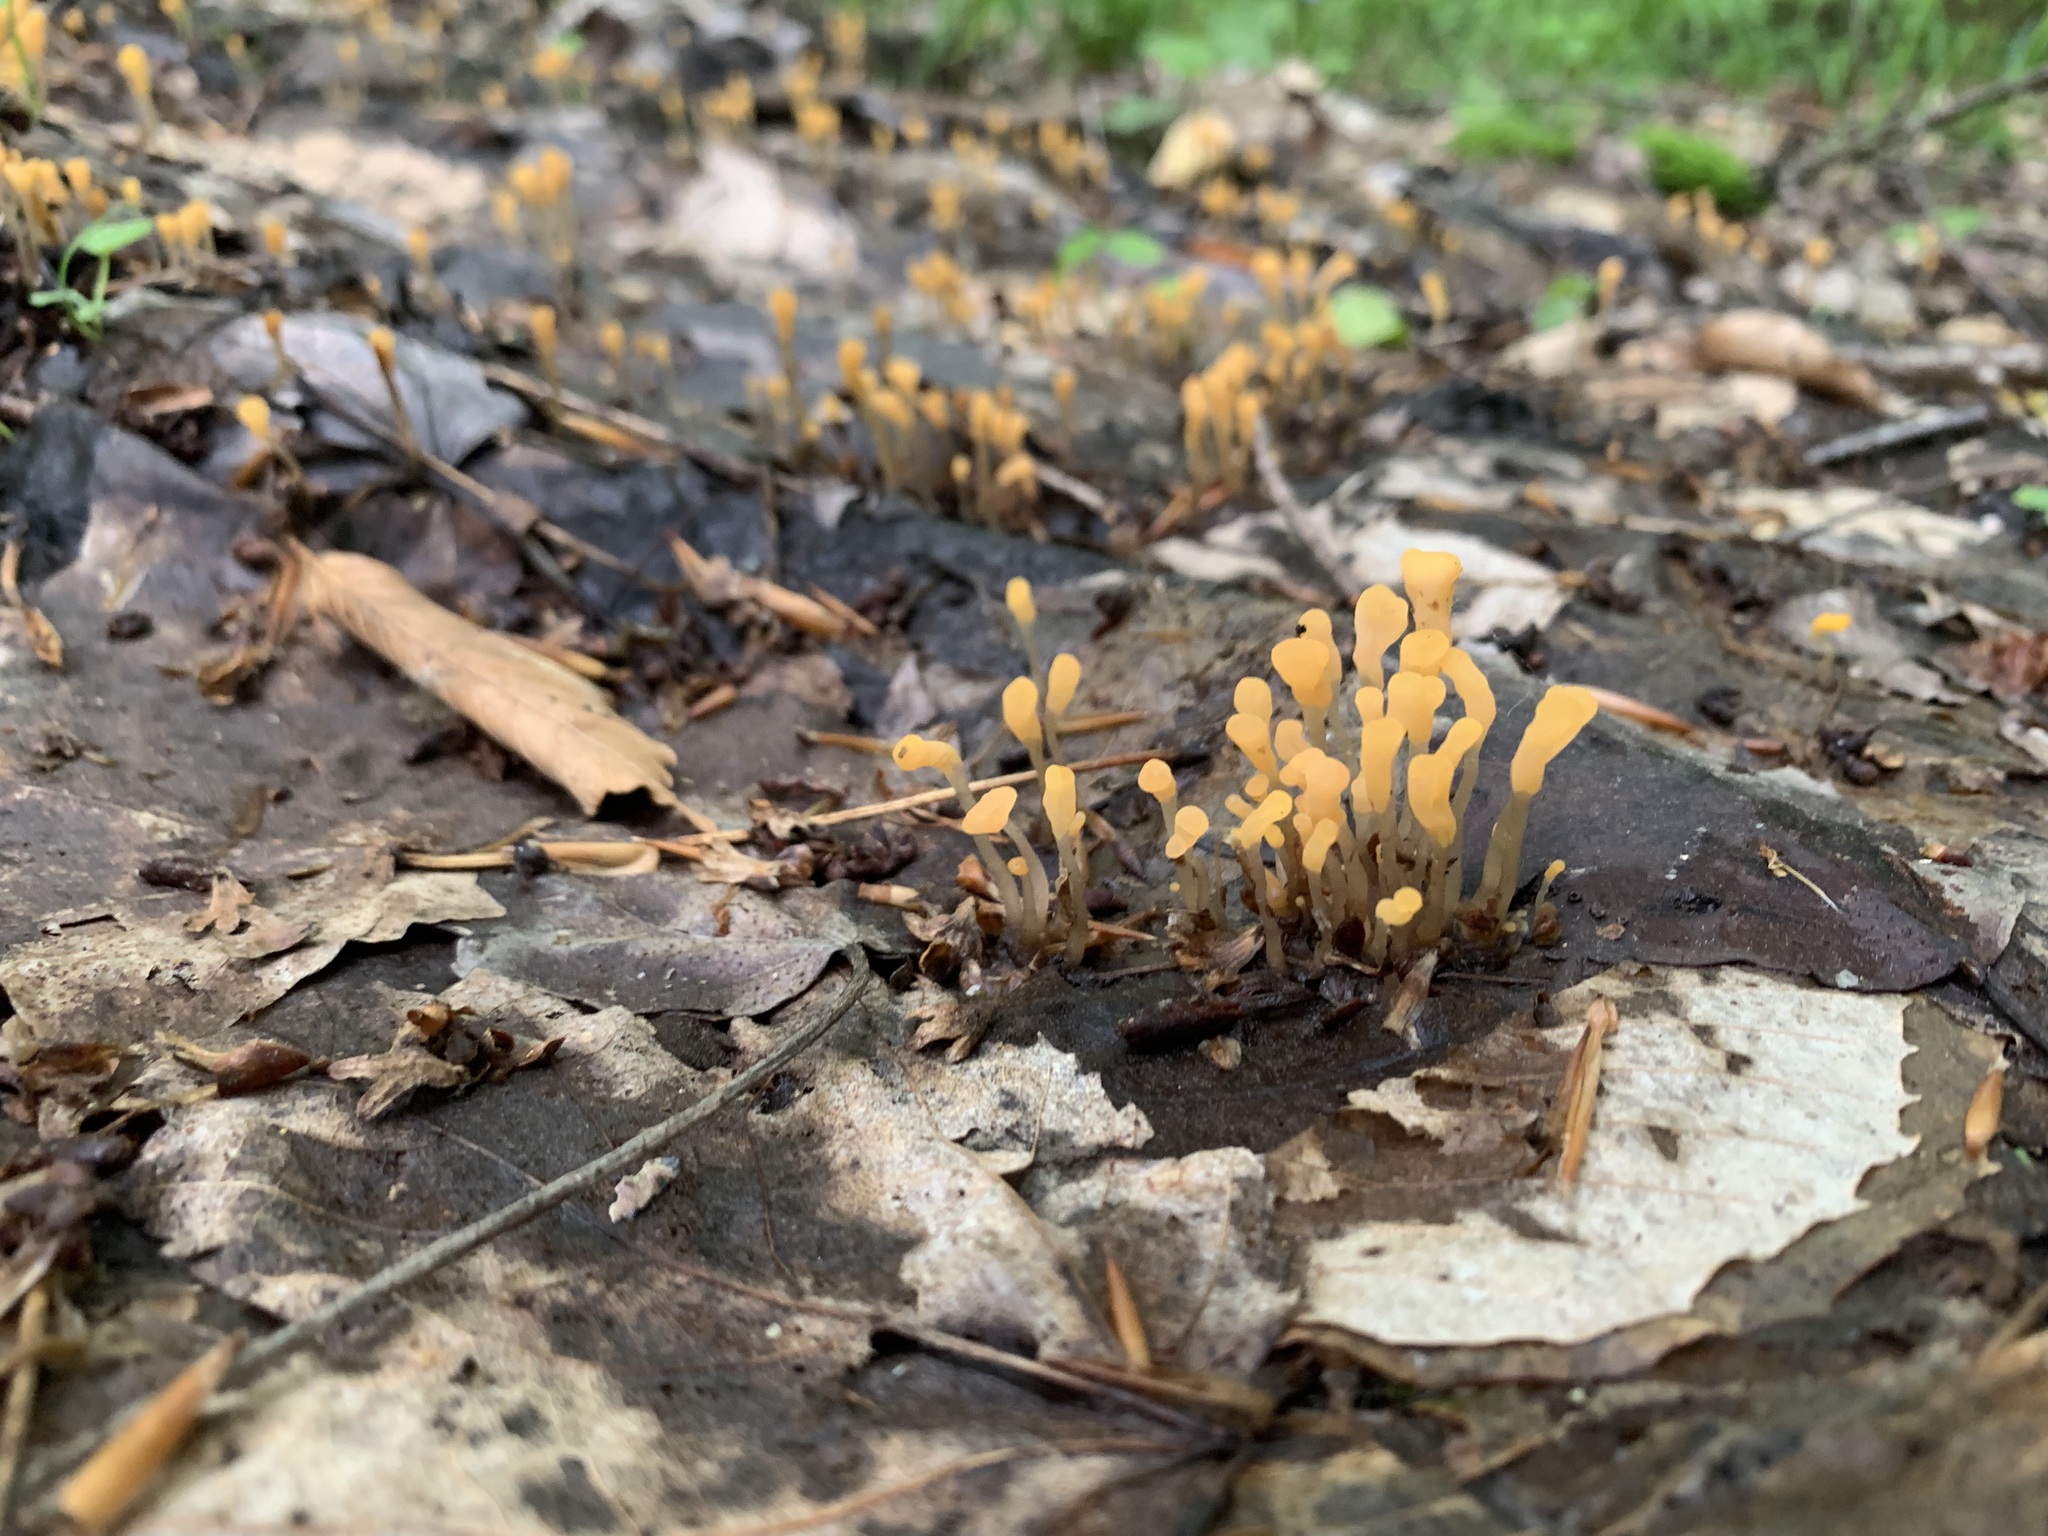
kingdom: Fungi
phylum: Ascomycota
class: Leotiomycetes
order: Helotiales
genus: Mitrula
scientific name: Mitrula
